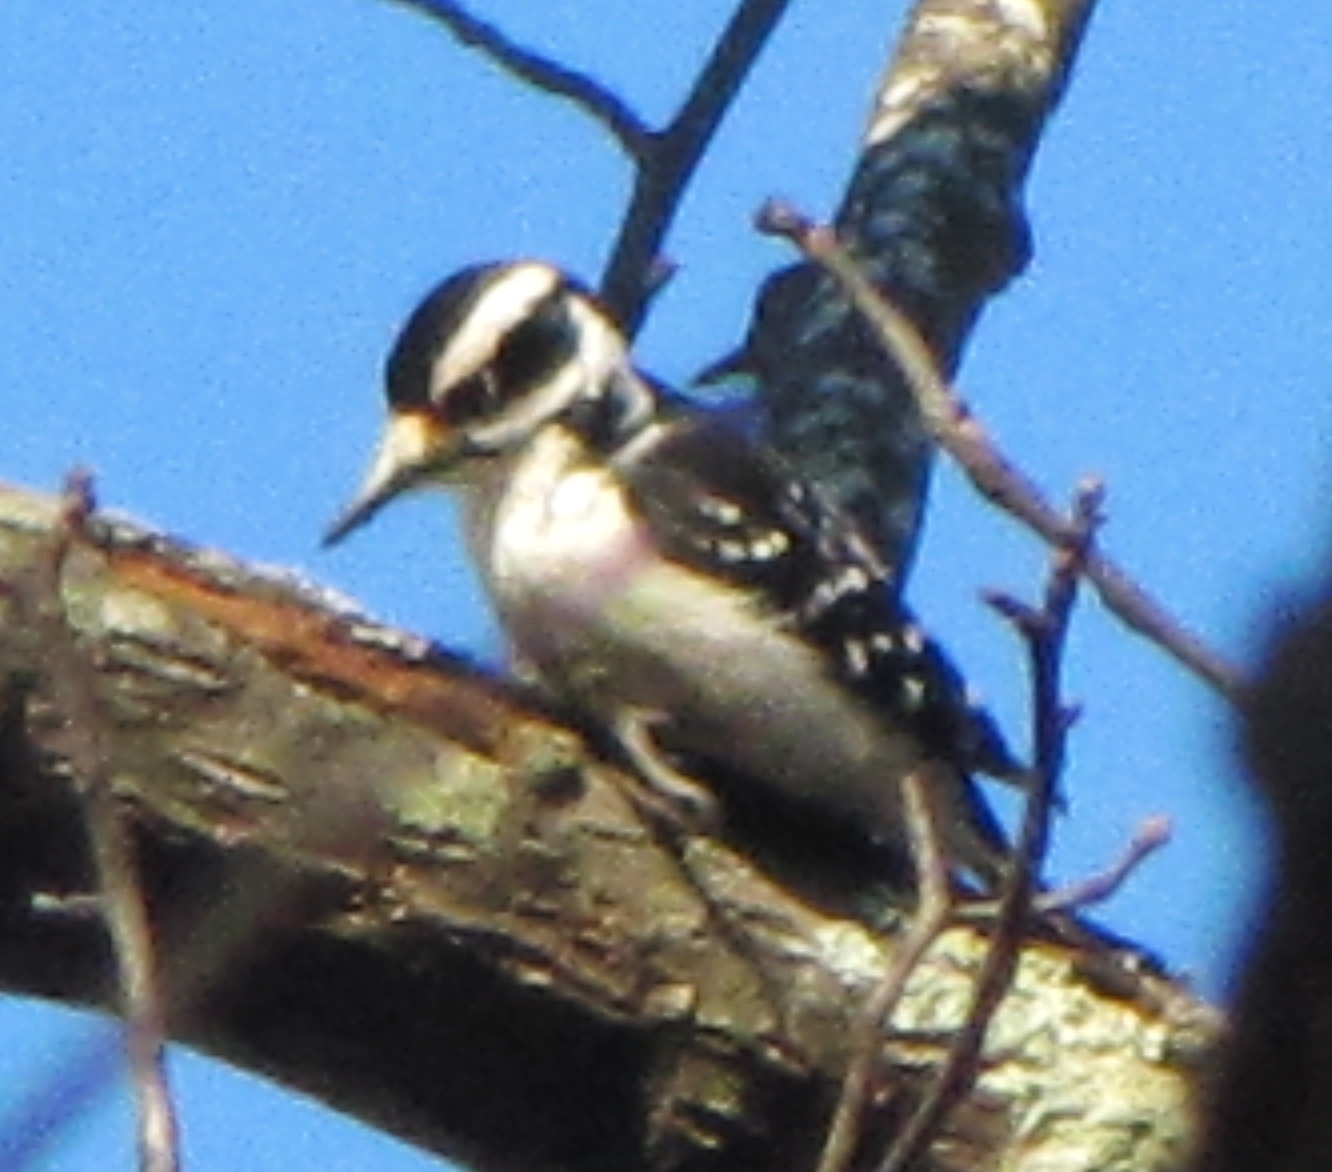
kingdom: Animalia
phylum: Chordata
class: Aves
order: Piciformes
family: Picidae
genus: Leuconotopicus
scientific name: Leuconotopicus villosus
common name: Hairy woodpecker
